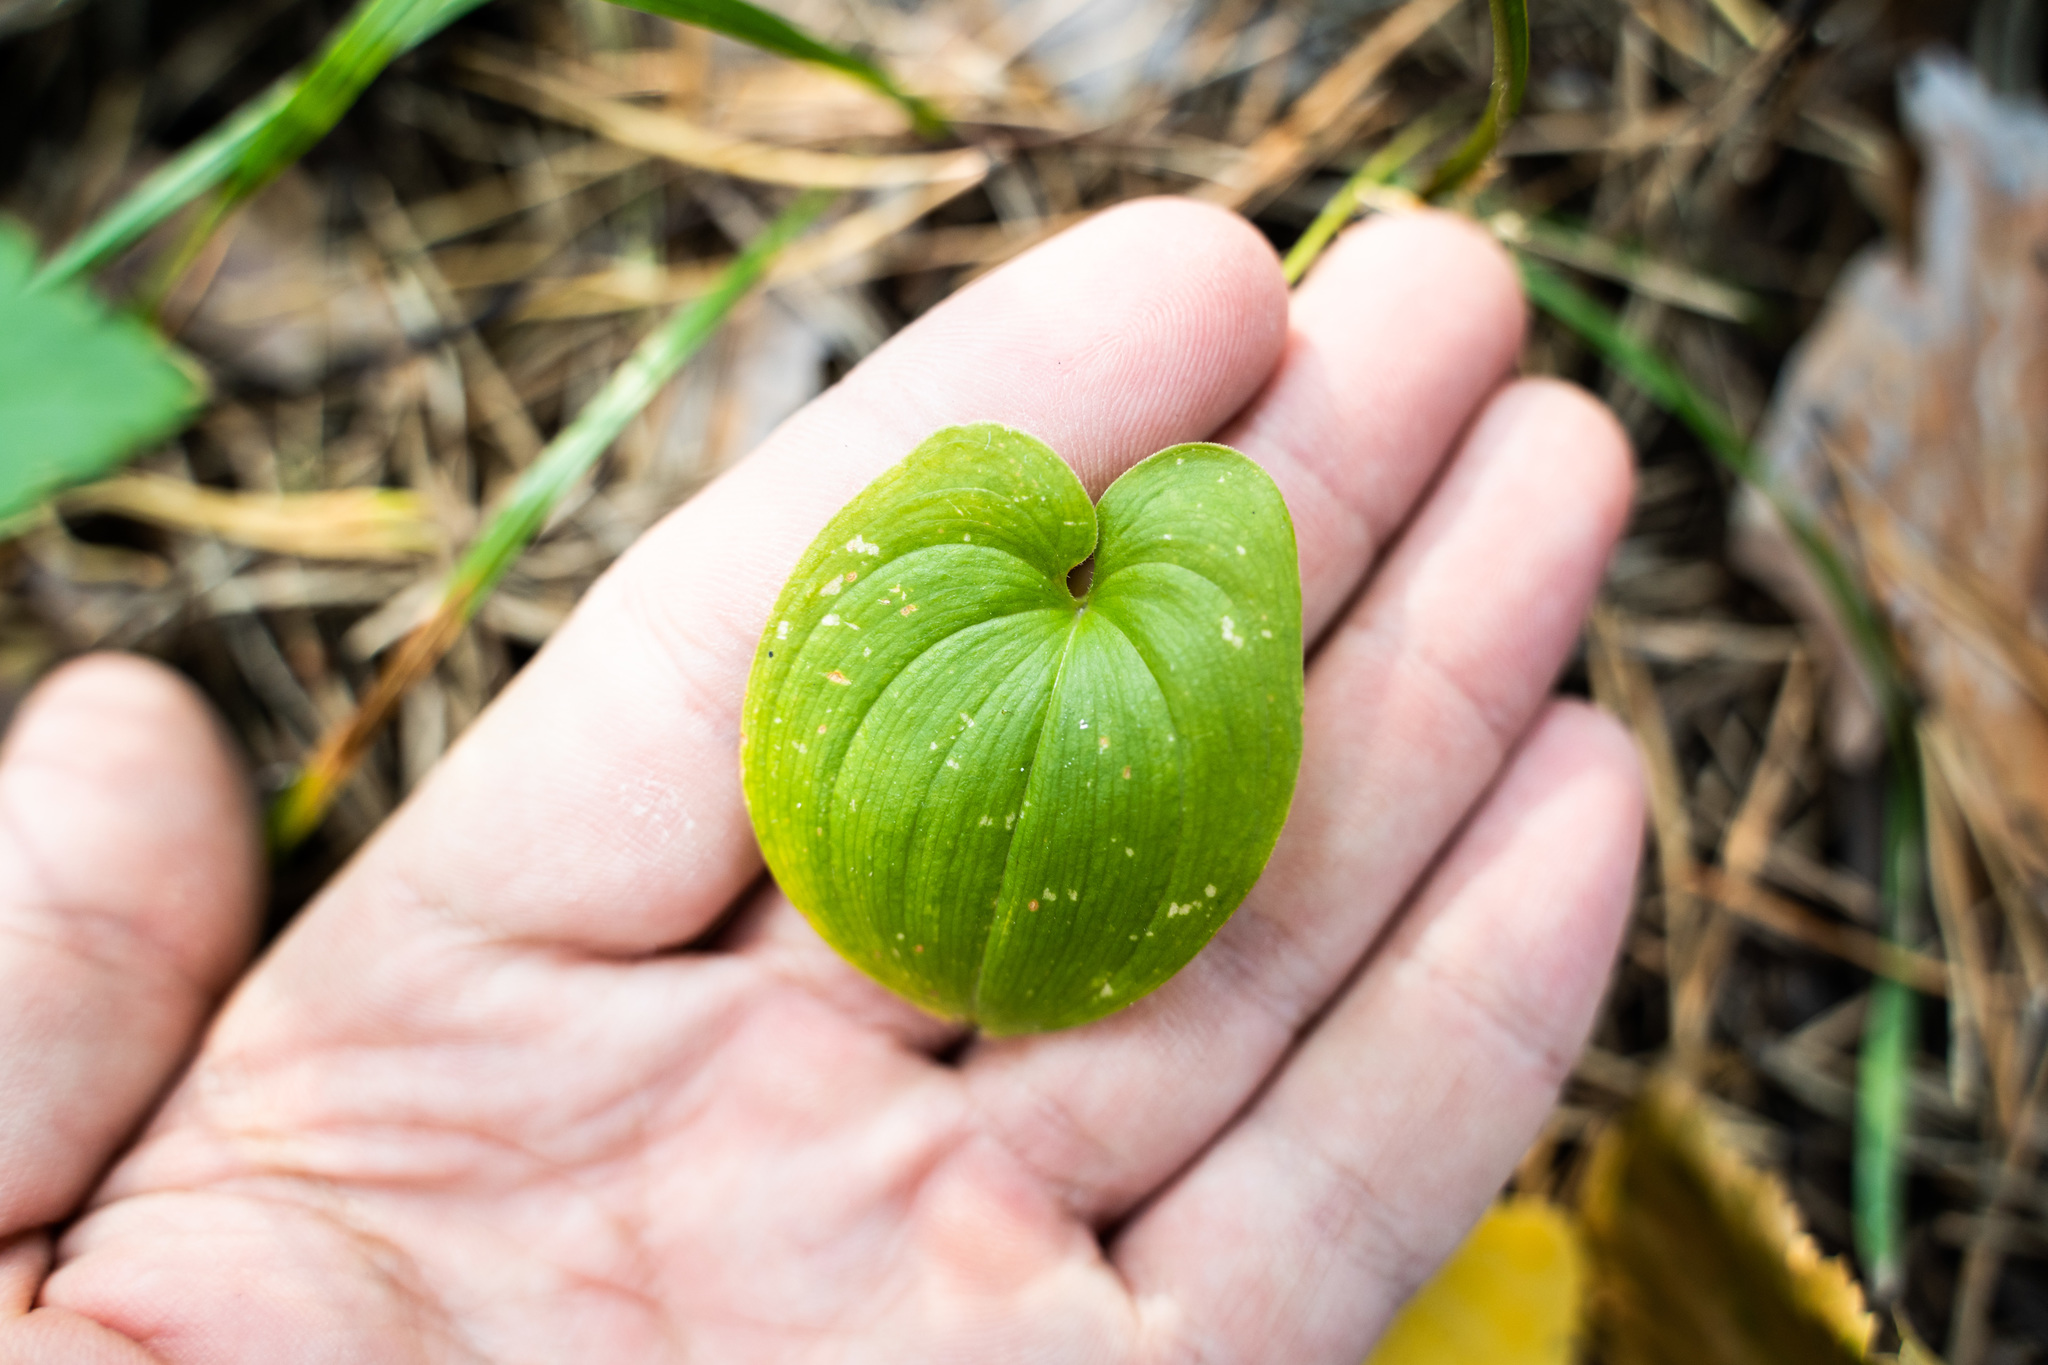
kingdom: Plantae
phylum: Tracheophyta
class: Liliopsida
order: Asparagales
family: Asparagaceae
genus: Maianthemum
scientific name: Maianthemum bifolium
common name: May lily
